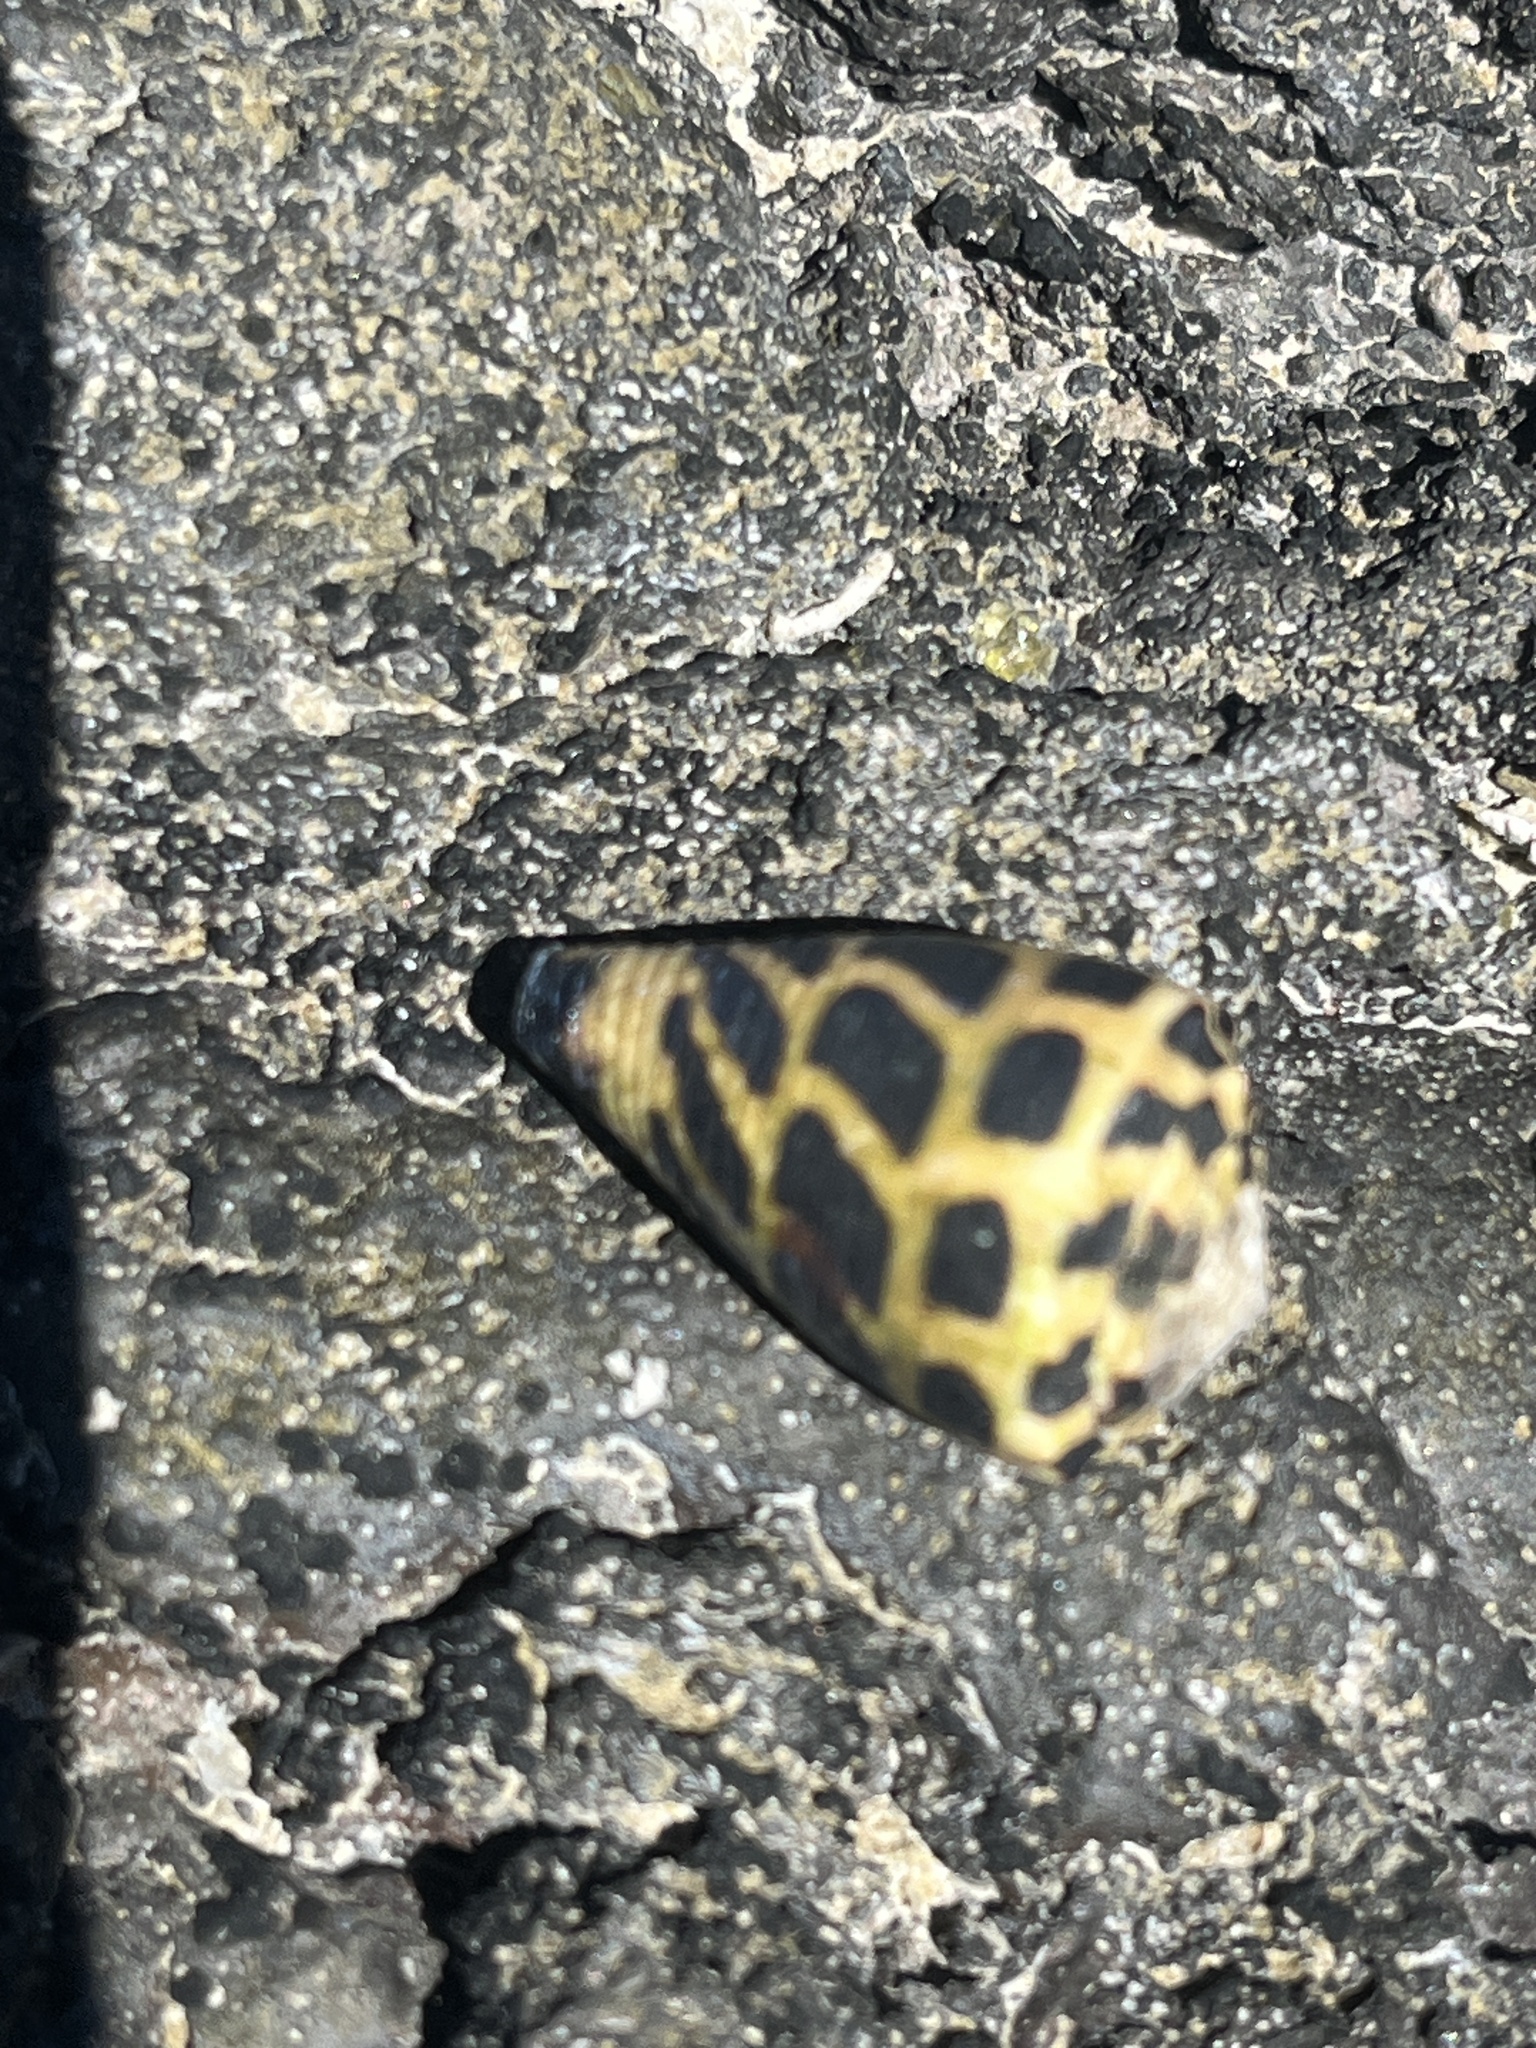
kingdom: Animalia
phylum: Mollusca
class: Gastropoda
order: Neogastropoda
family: Conidae
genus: Conus
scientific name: Conus ebraeus
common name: Hebrew cone
